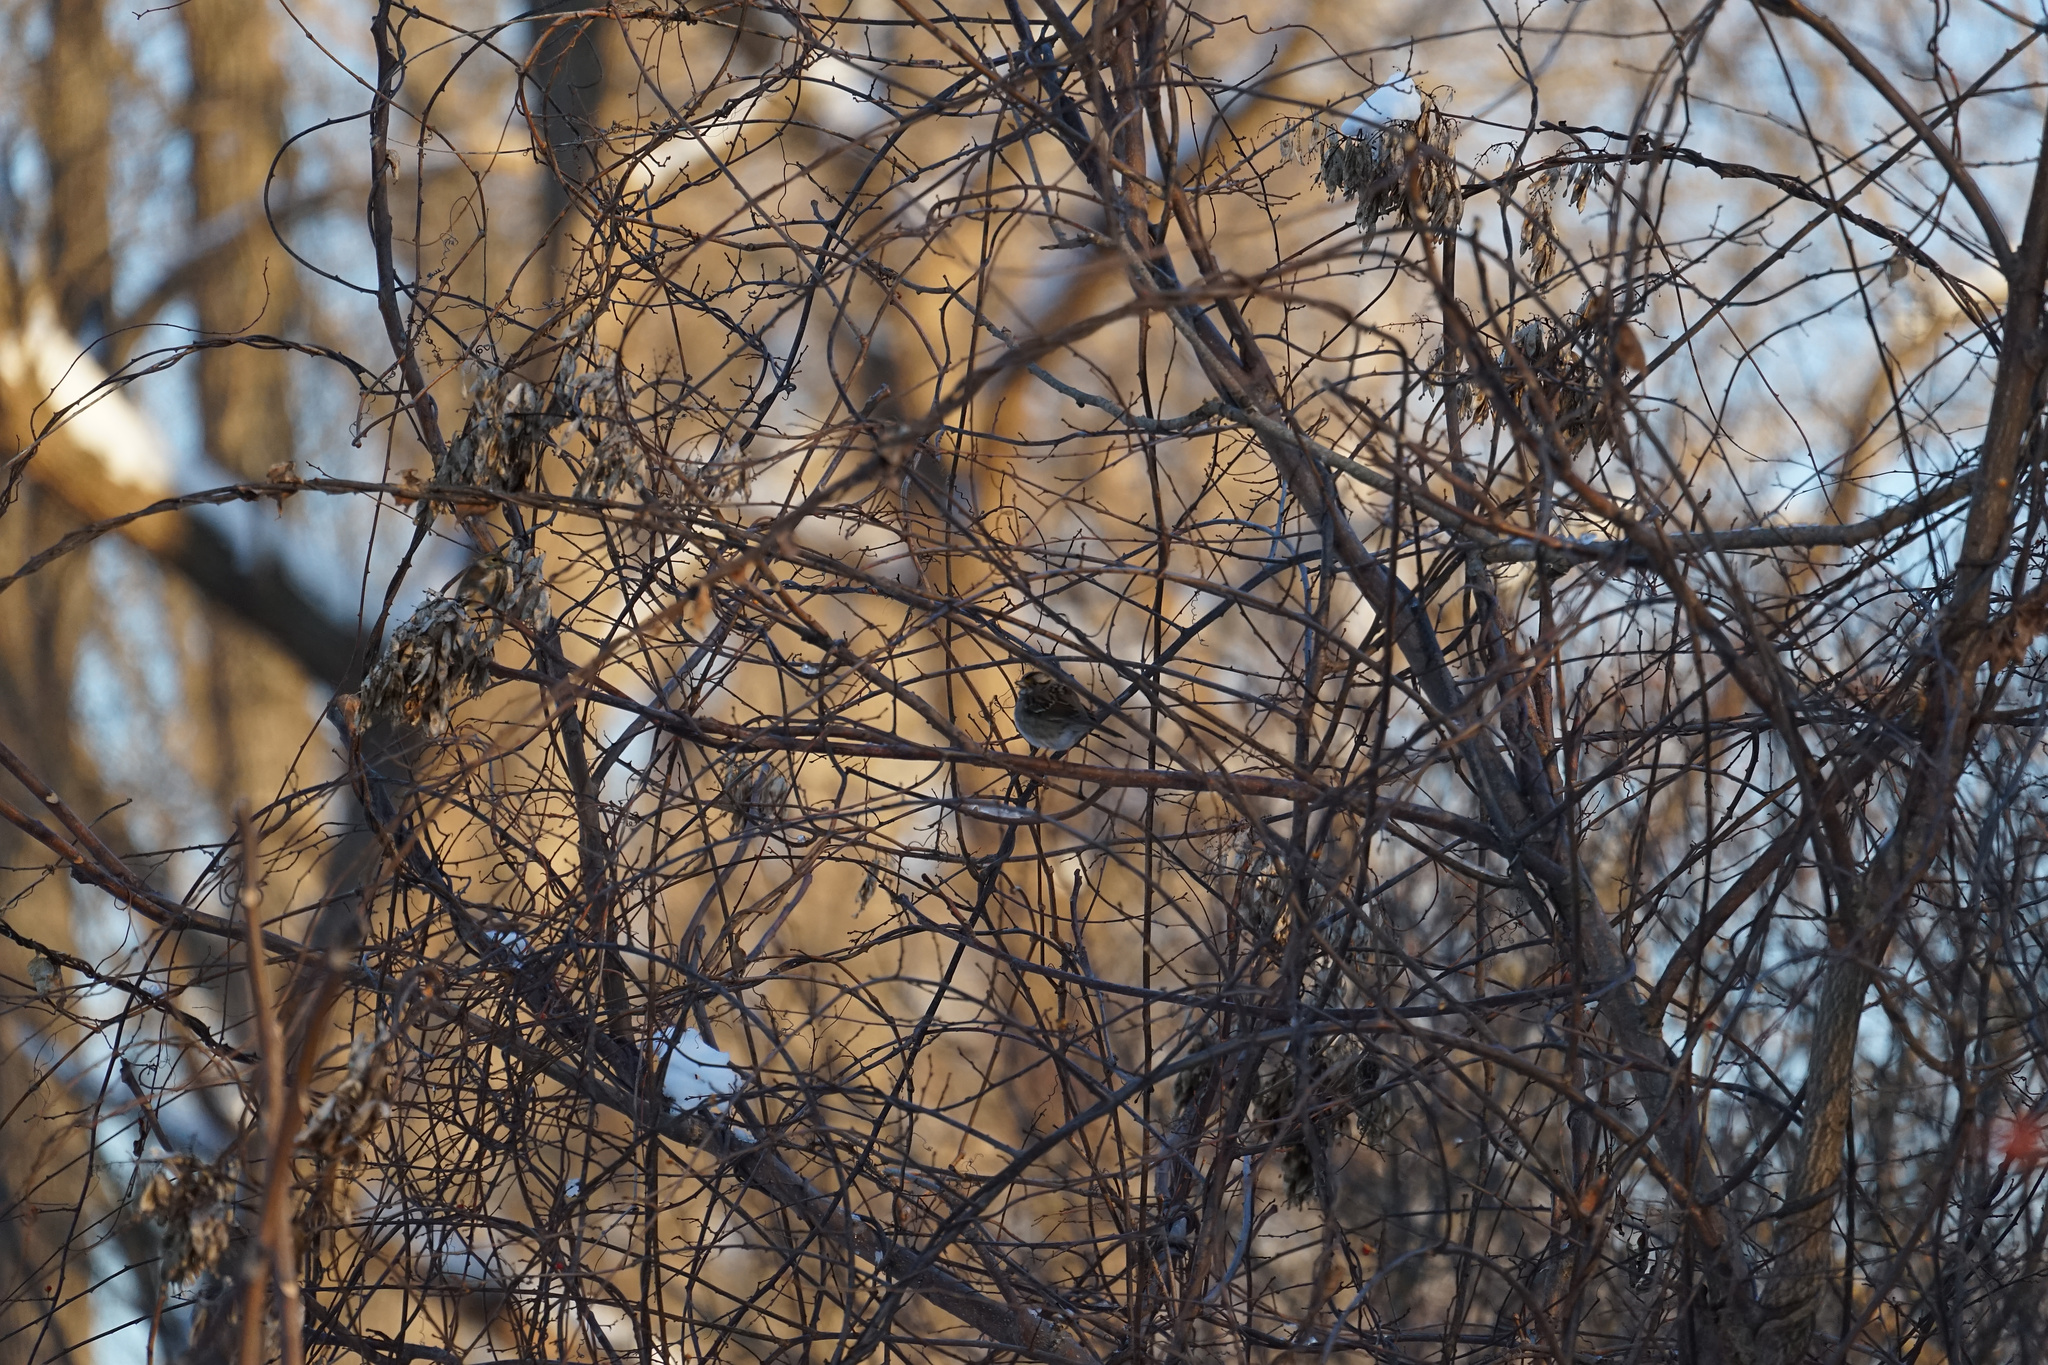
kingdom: Animalia
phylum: Chordata
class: Aves
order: Passeriformes
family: Passerellidae
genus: Zonotrichia
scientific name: Zonotrichia albicollis
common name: White-throated sparrow
